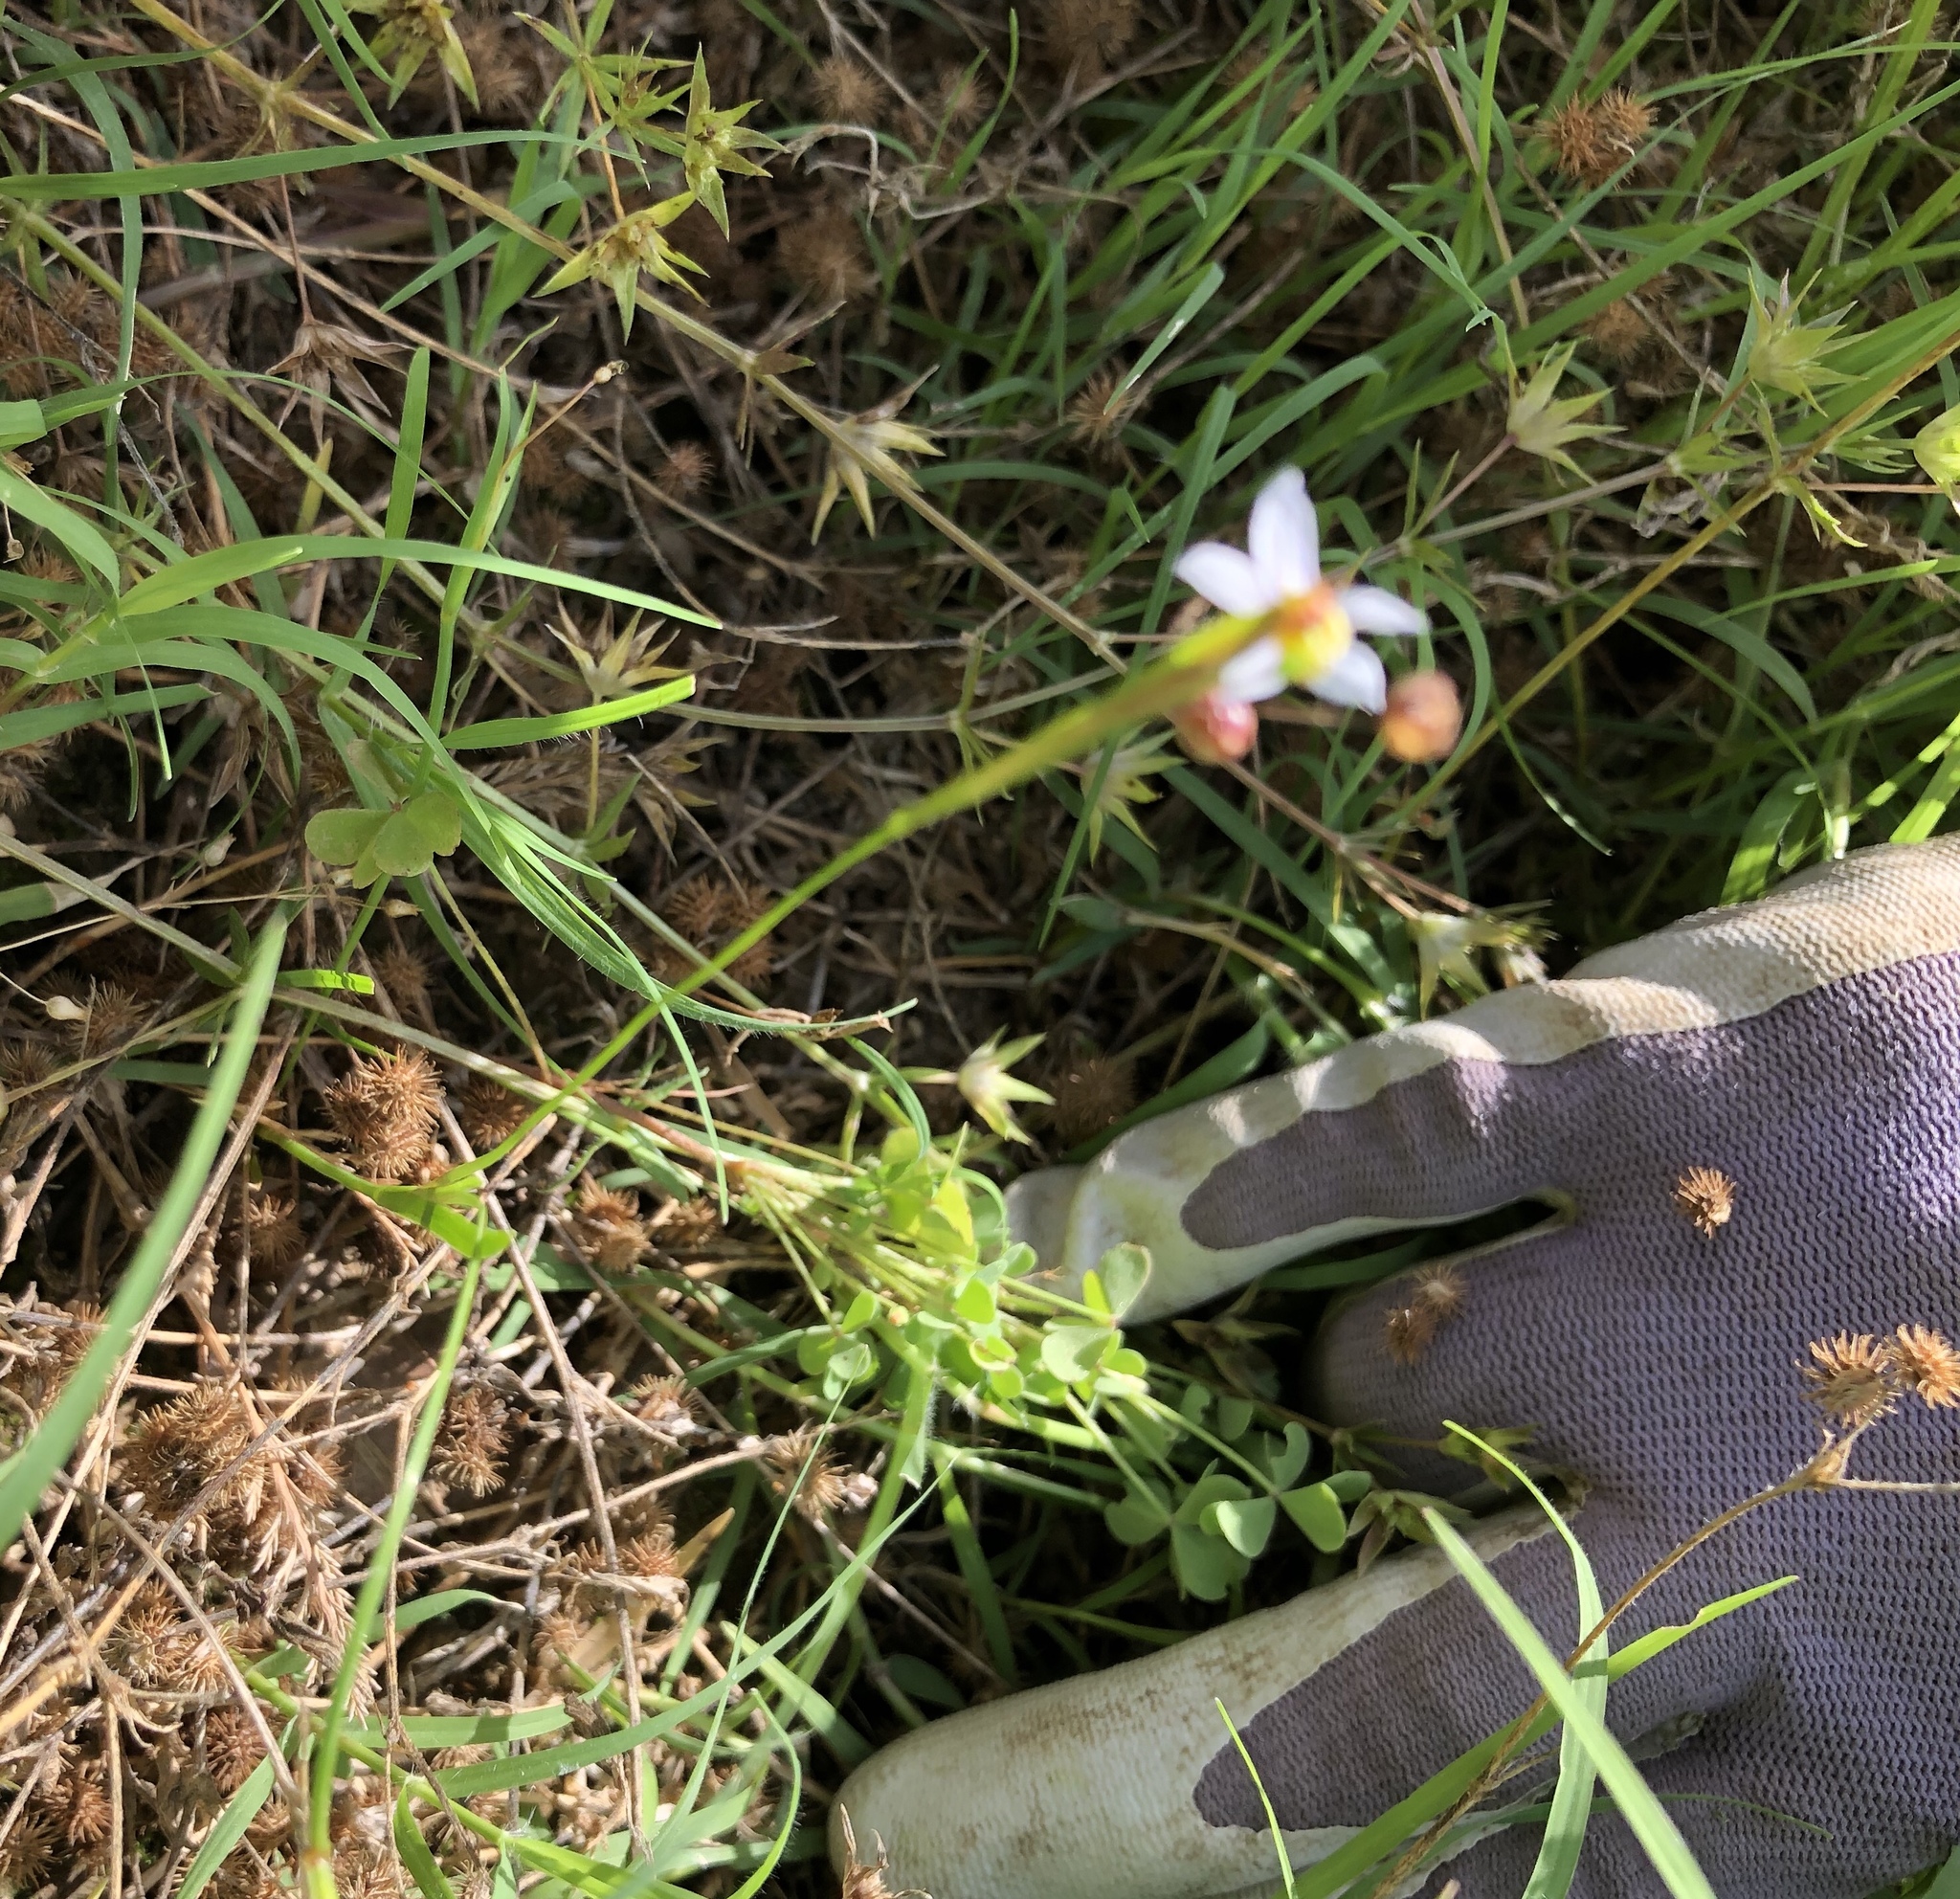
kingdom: Plantae
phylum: Tracheophyta
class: Liliopsida
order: Asparagales
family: Iridaceae
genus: Sisyrinchium
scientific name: Sisyrinchium micranthum
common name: Bermuda pigroot
